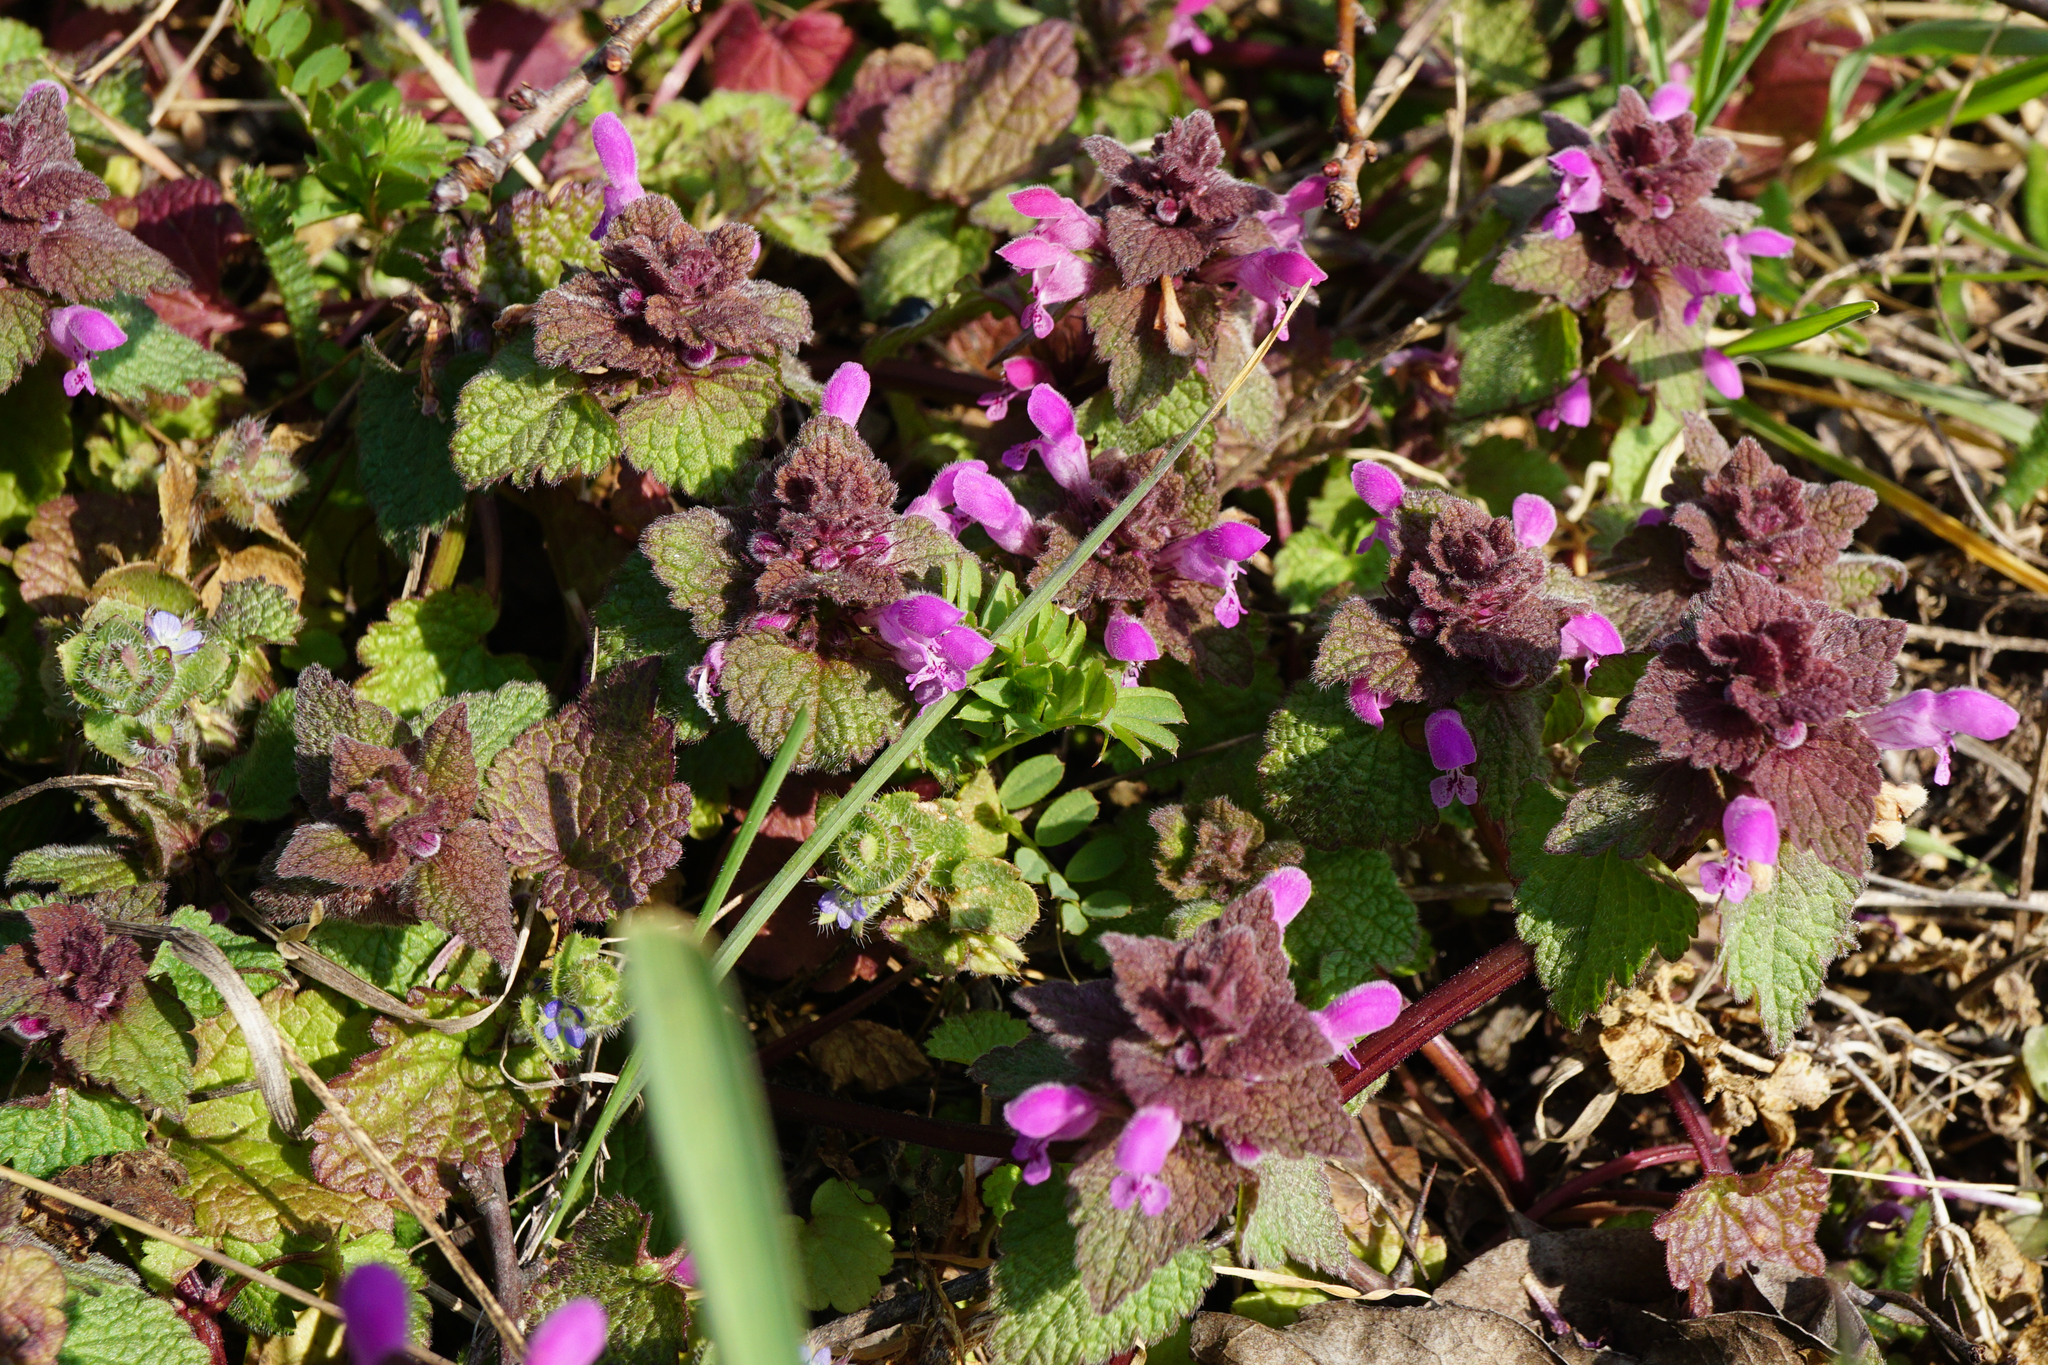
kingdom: Plantae
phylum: Tracheophyta
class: Magnoliopsida
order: Lamiales
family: Lamiaceae
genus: Lamium
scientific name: Lamium purpureum
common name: Red dead-nettle
